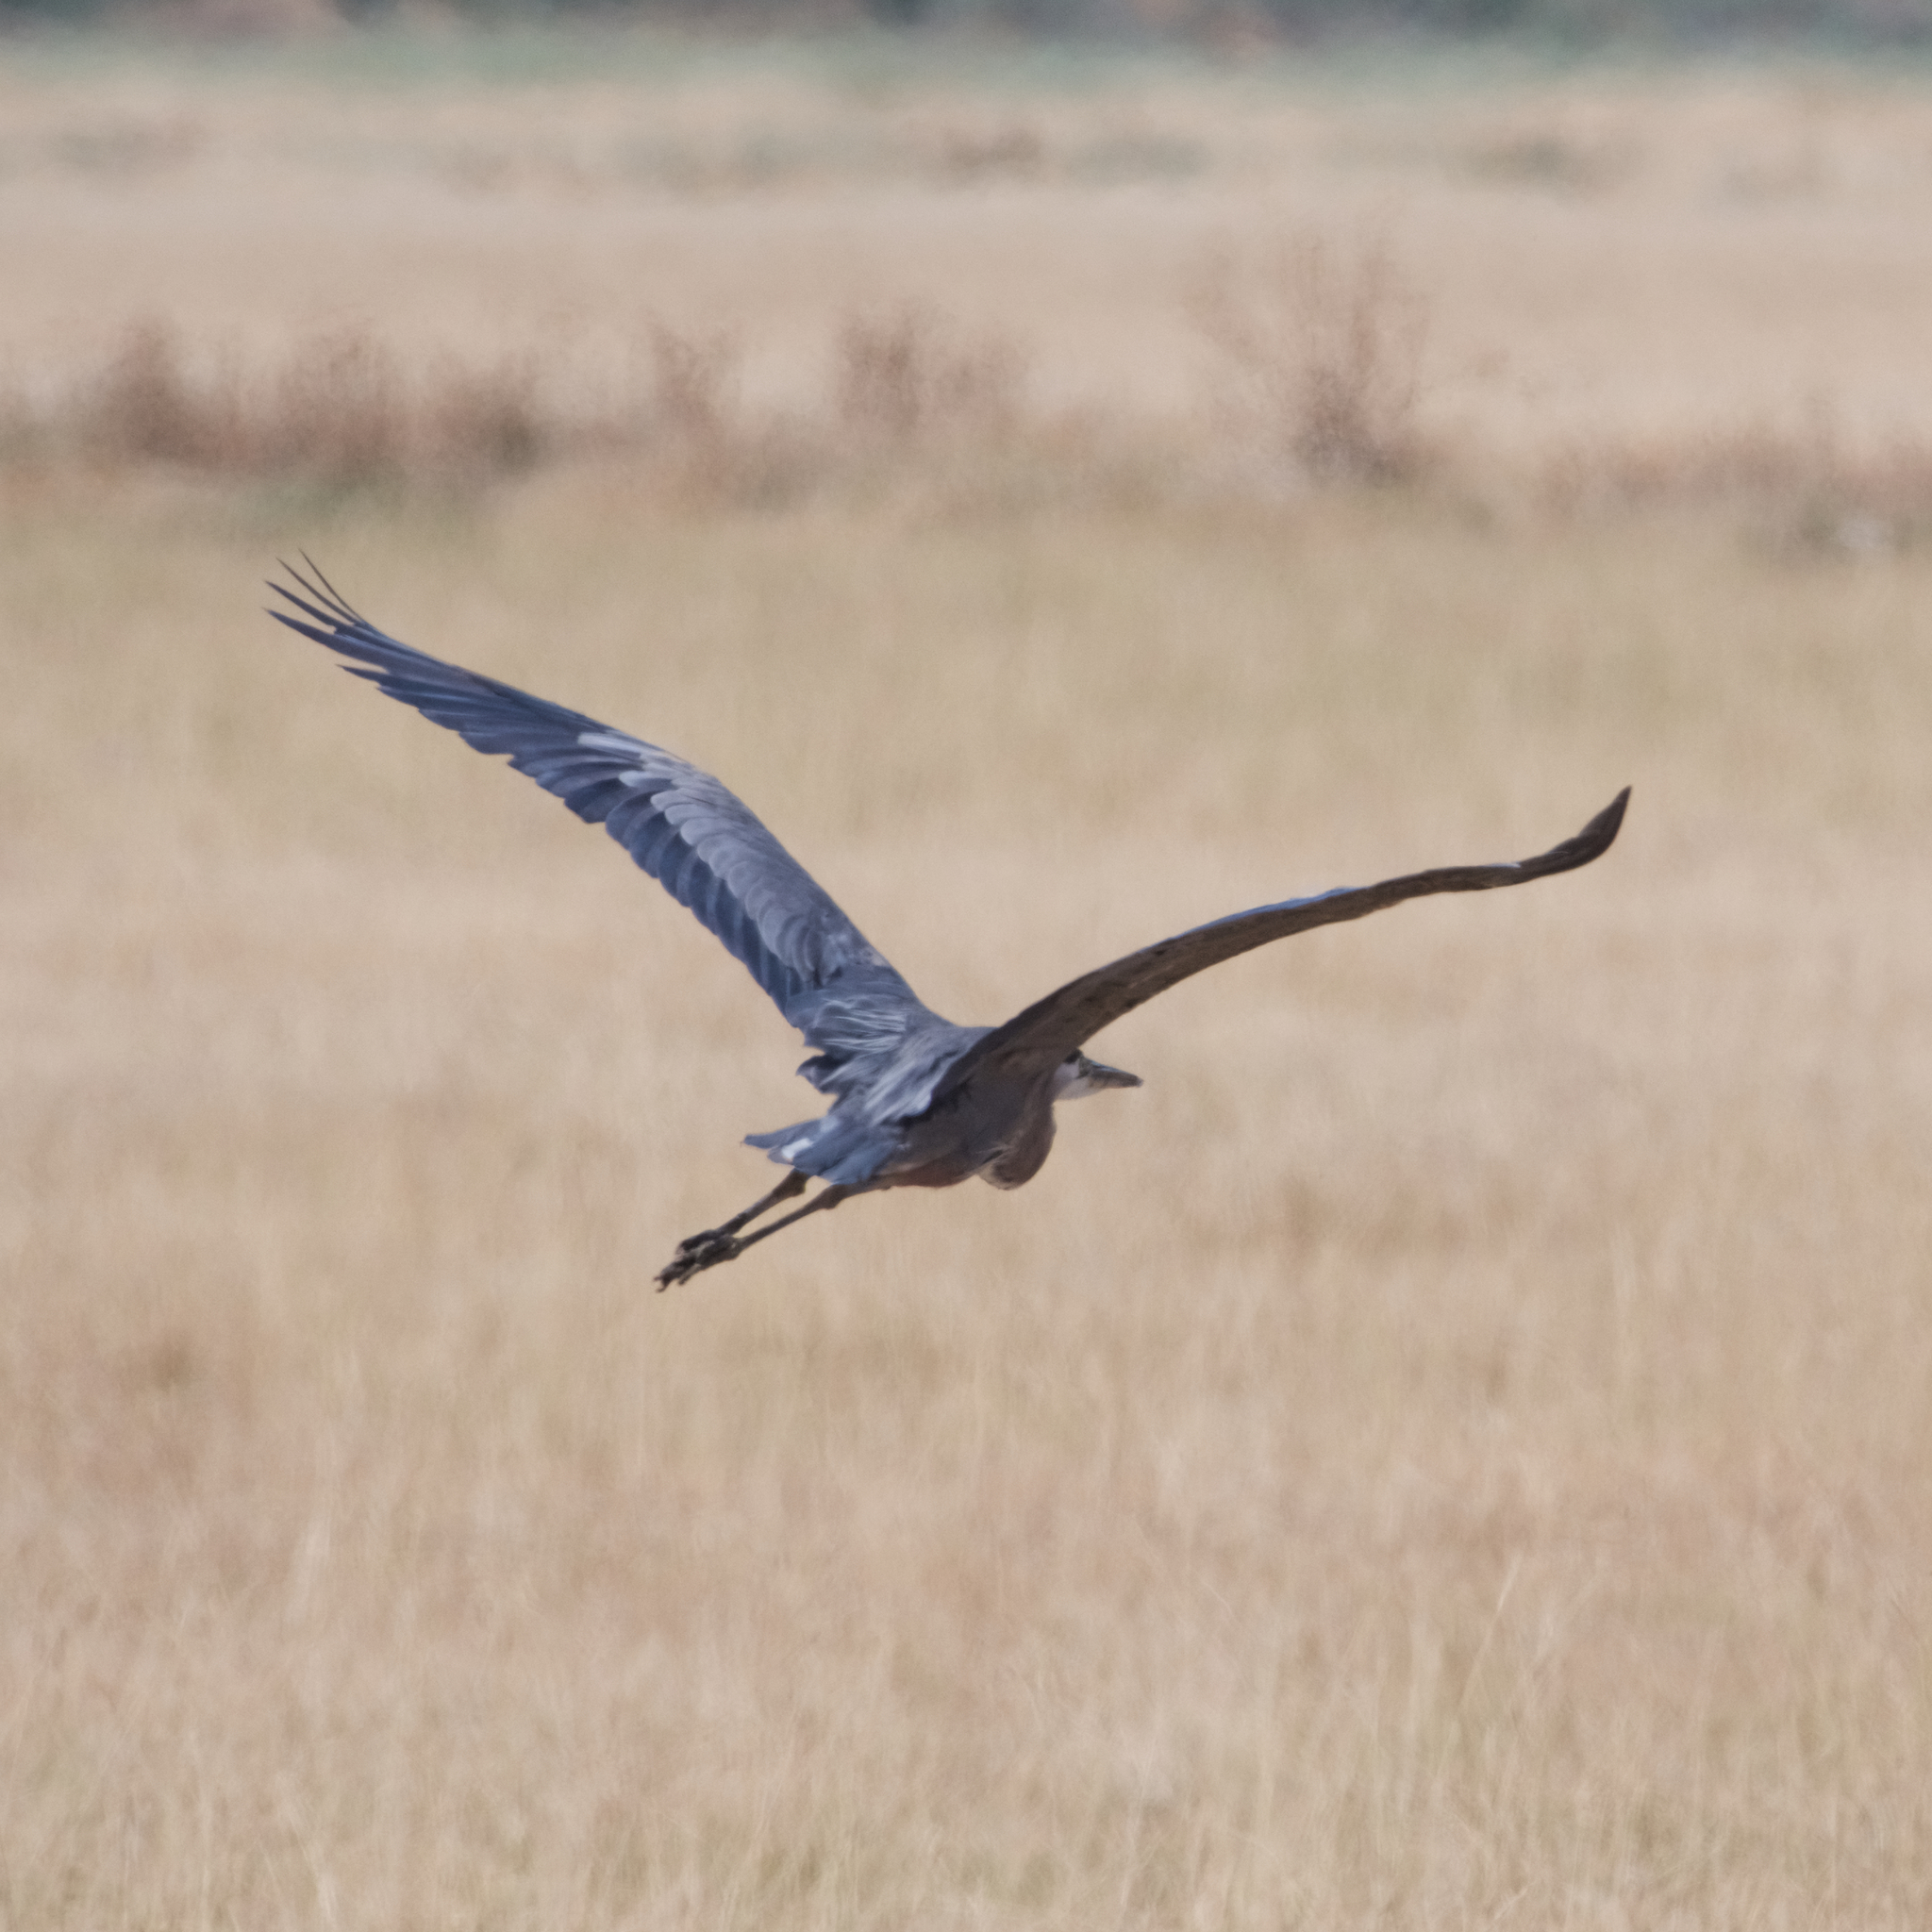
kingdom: Animalia
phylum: Chordata
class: Aves
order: Pelecaniformes
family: Ardeidae
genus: Ardea
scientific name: Ardea herodias
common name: Great blue heron
